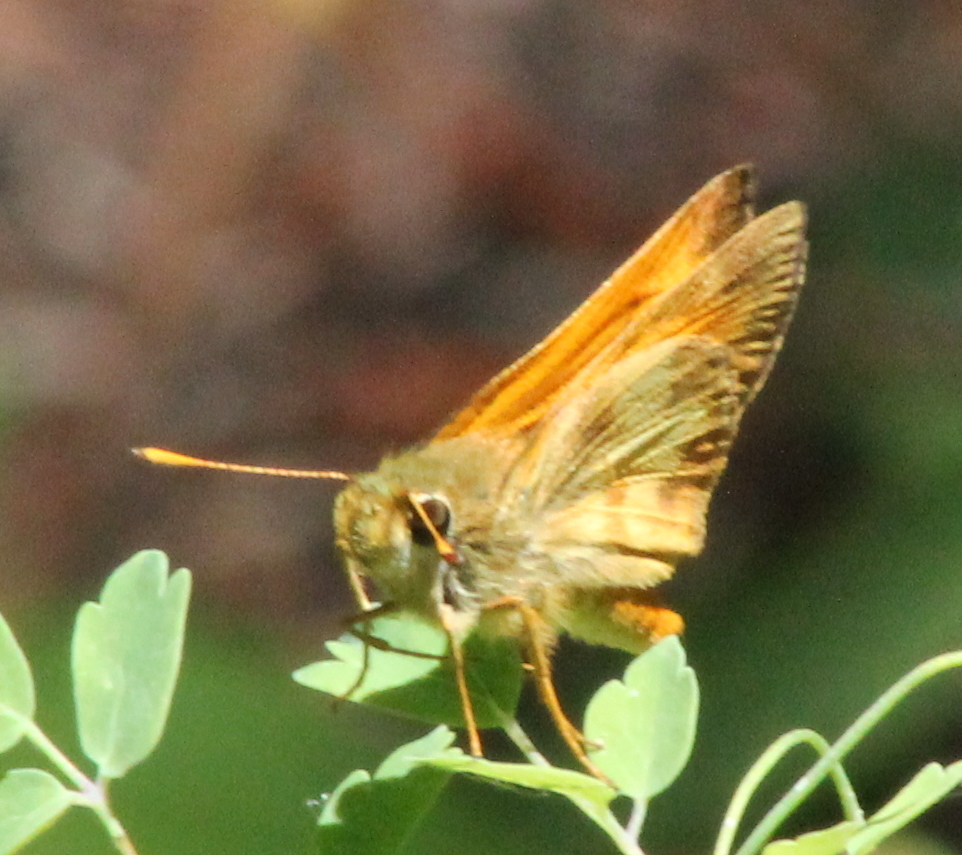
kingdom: Animalia
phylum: Arthropoda
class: Insecta
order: Lepidoptera
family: Hesperiidae
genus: Lon
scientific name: Lon taxiles
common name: Taxiles skipper
